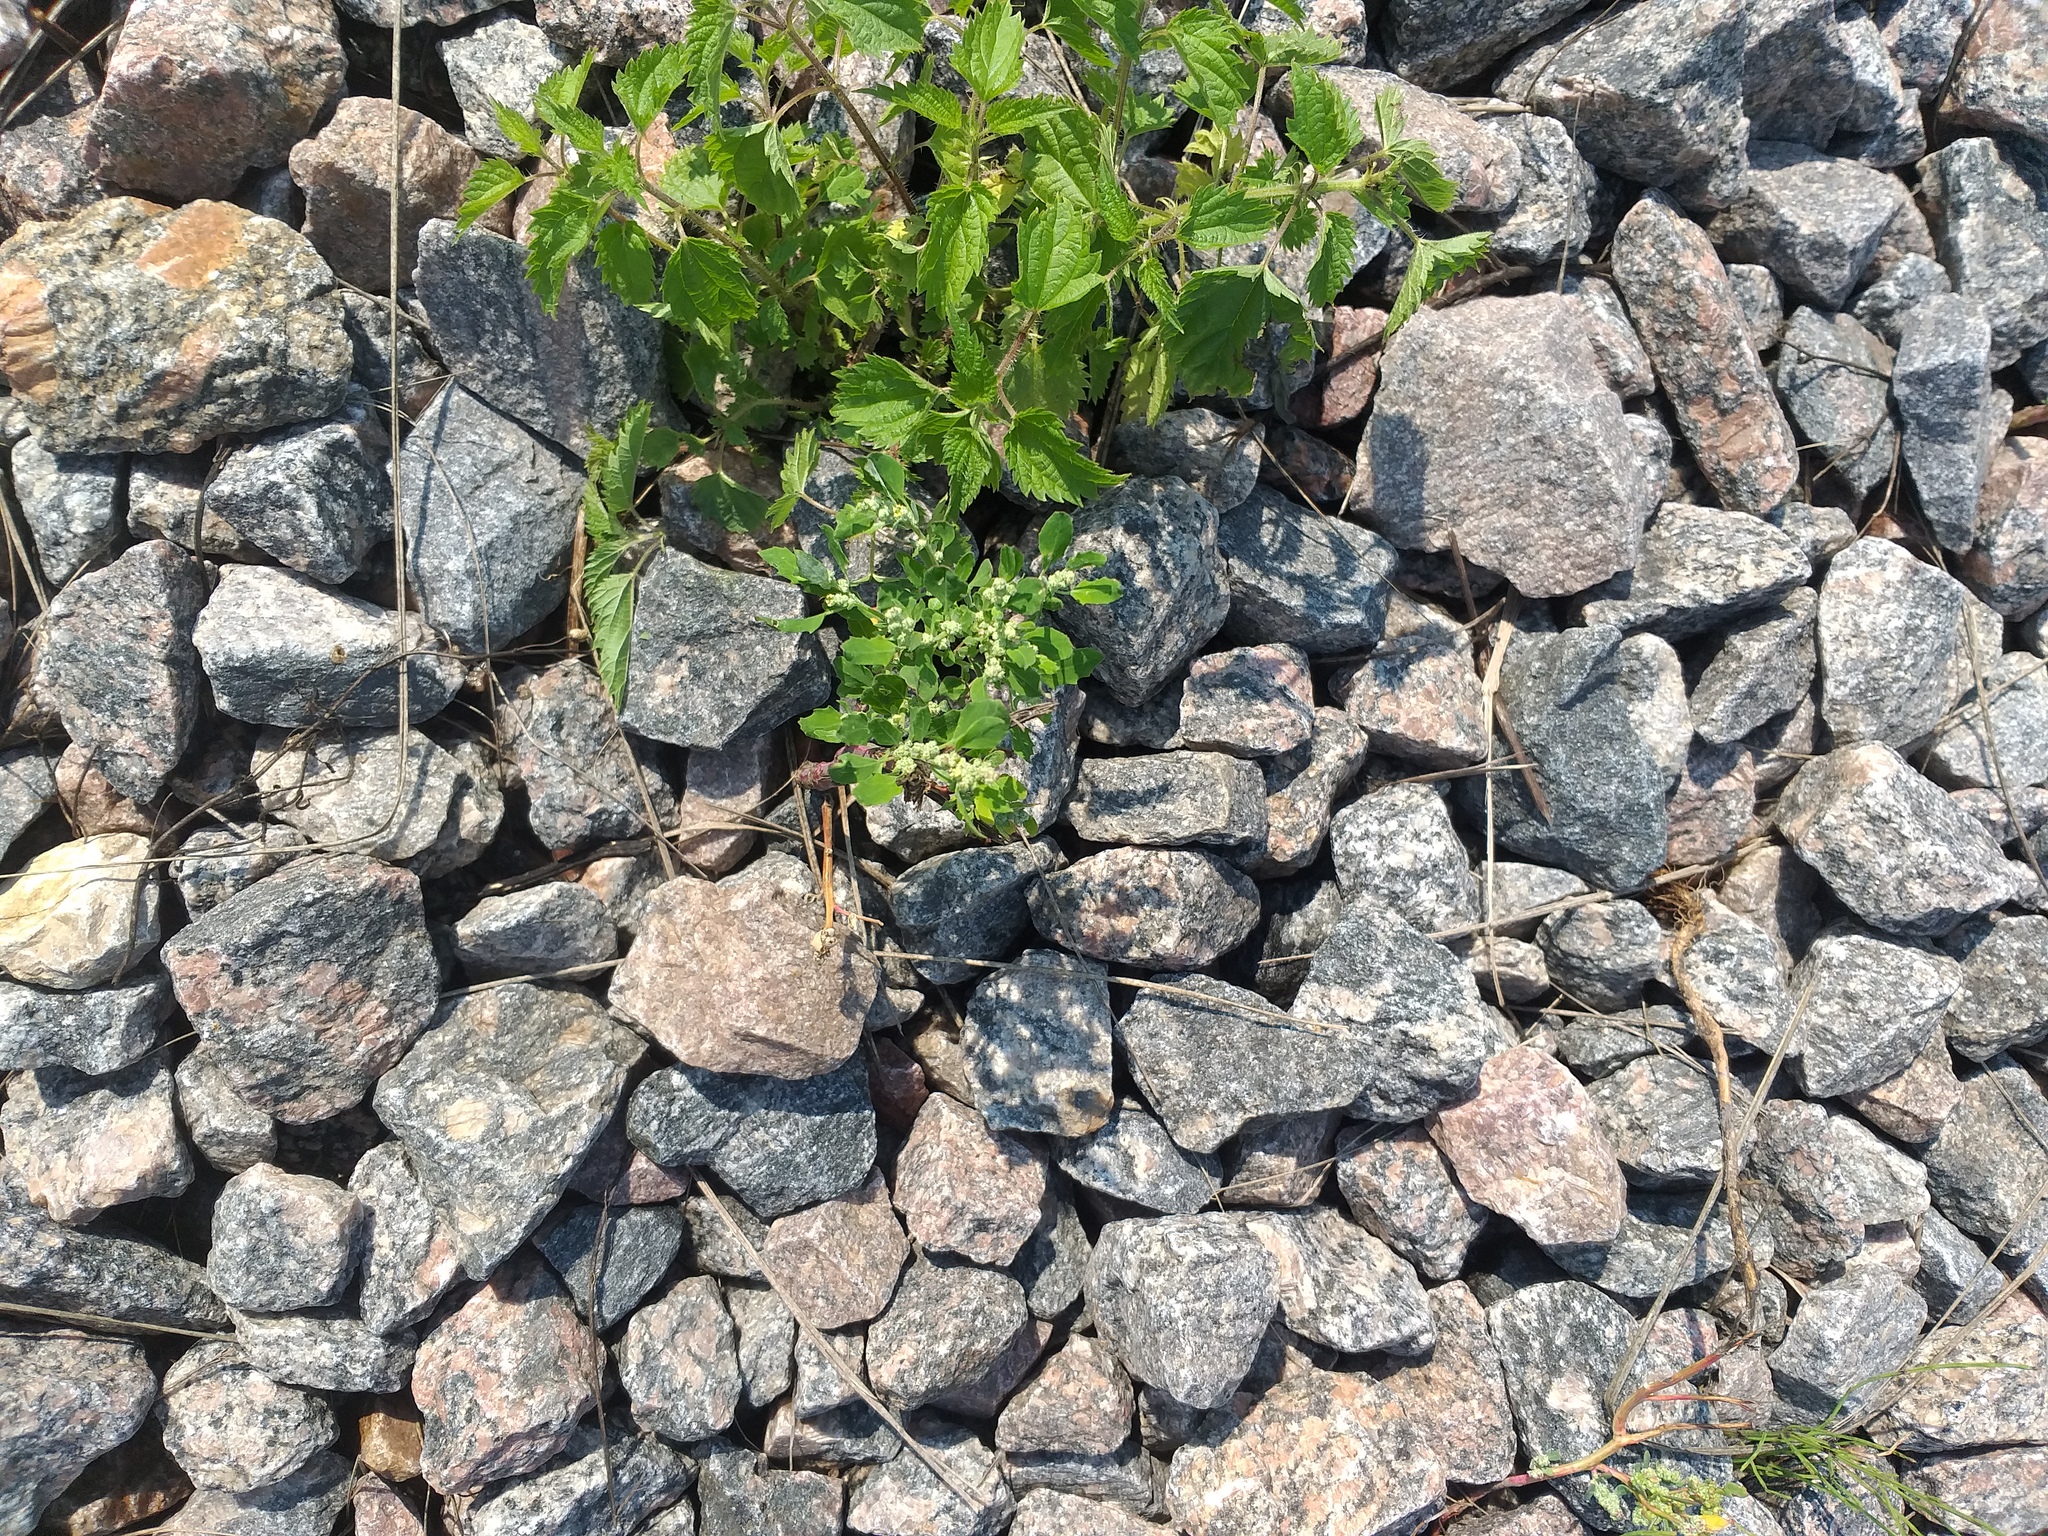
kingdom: Plantae
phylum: Tracheophyta
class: Magnoliopsida
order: Caryophyllales
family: Amaranthaceae
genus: Chenopodium
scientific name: Chenopodium album
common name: Fat-hen
